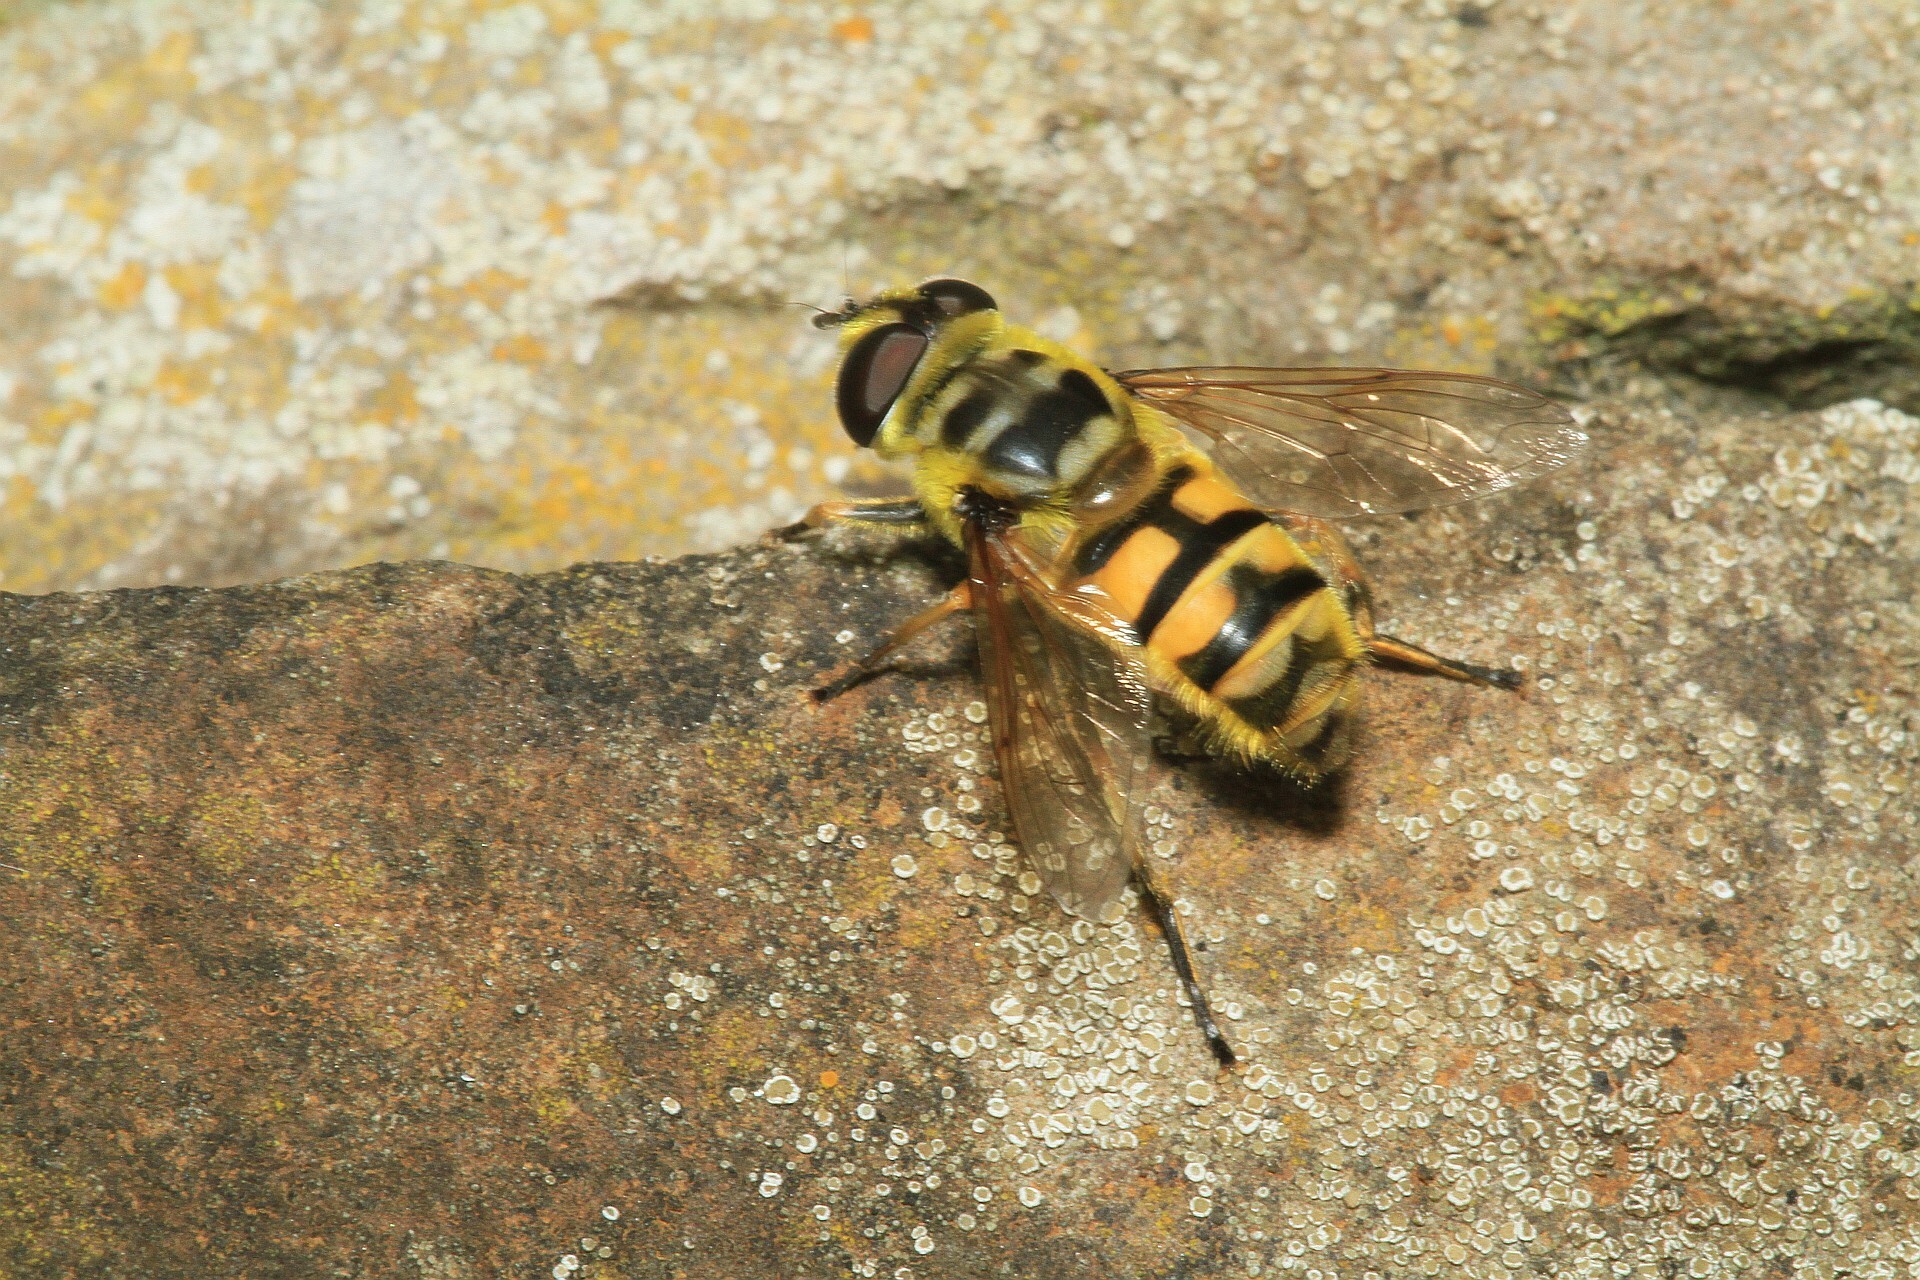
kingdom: Animalia
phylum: Arthropoda
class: Insecta
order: Diptera
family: Syrphidae
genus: Myathropa
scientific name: Myathropa florea
